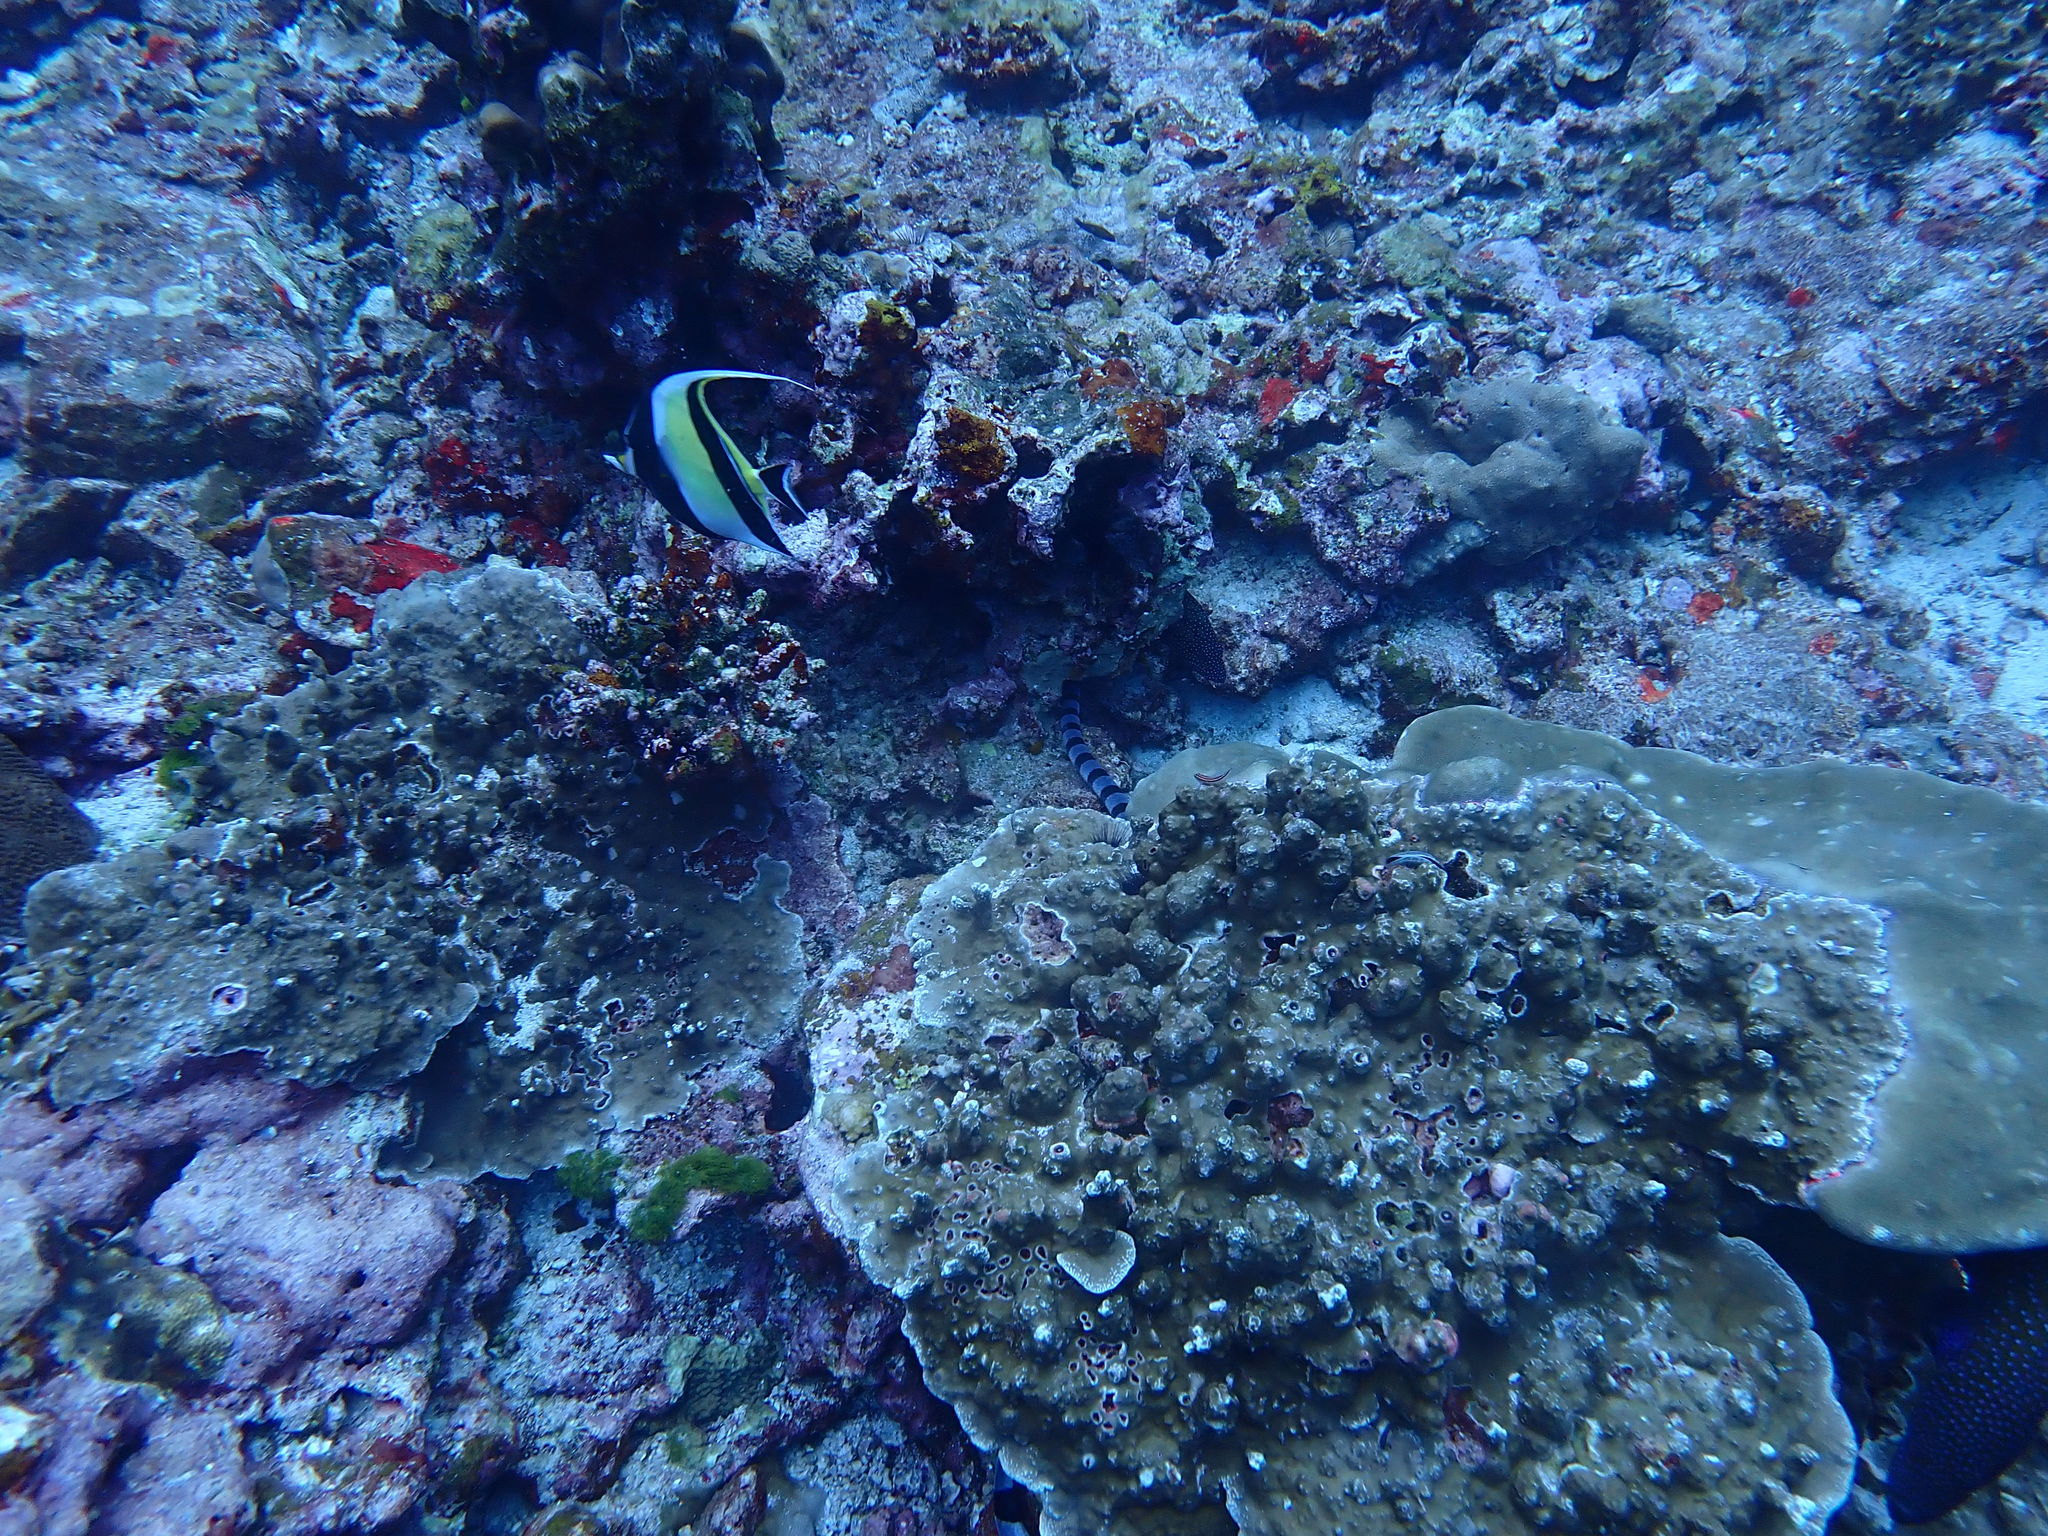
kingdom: Animalia
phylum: Chordata
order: Perciformes
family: Zanclidae
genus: Zanclus
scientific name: Zanclus cornutus
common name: Moorish idol
